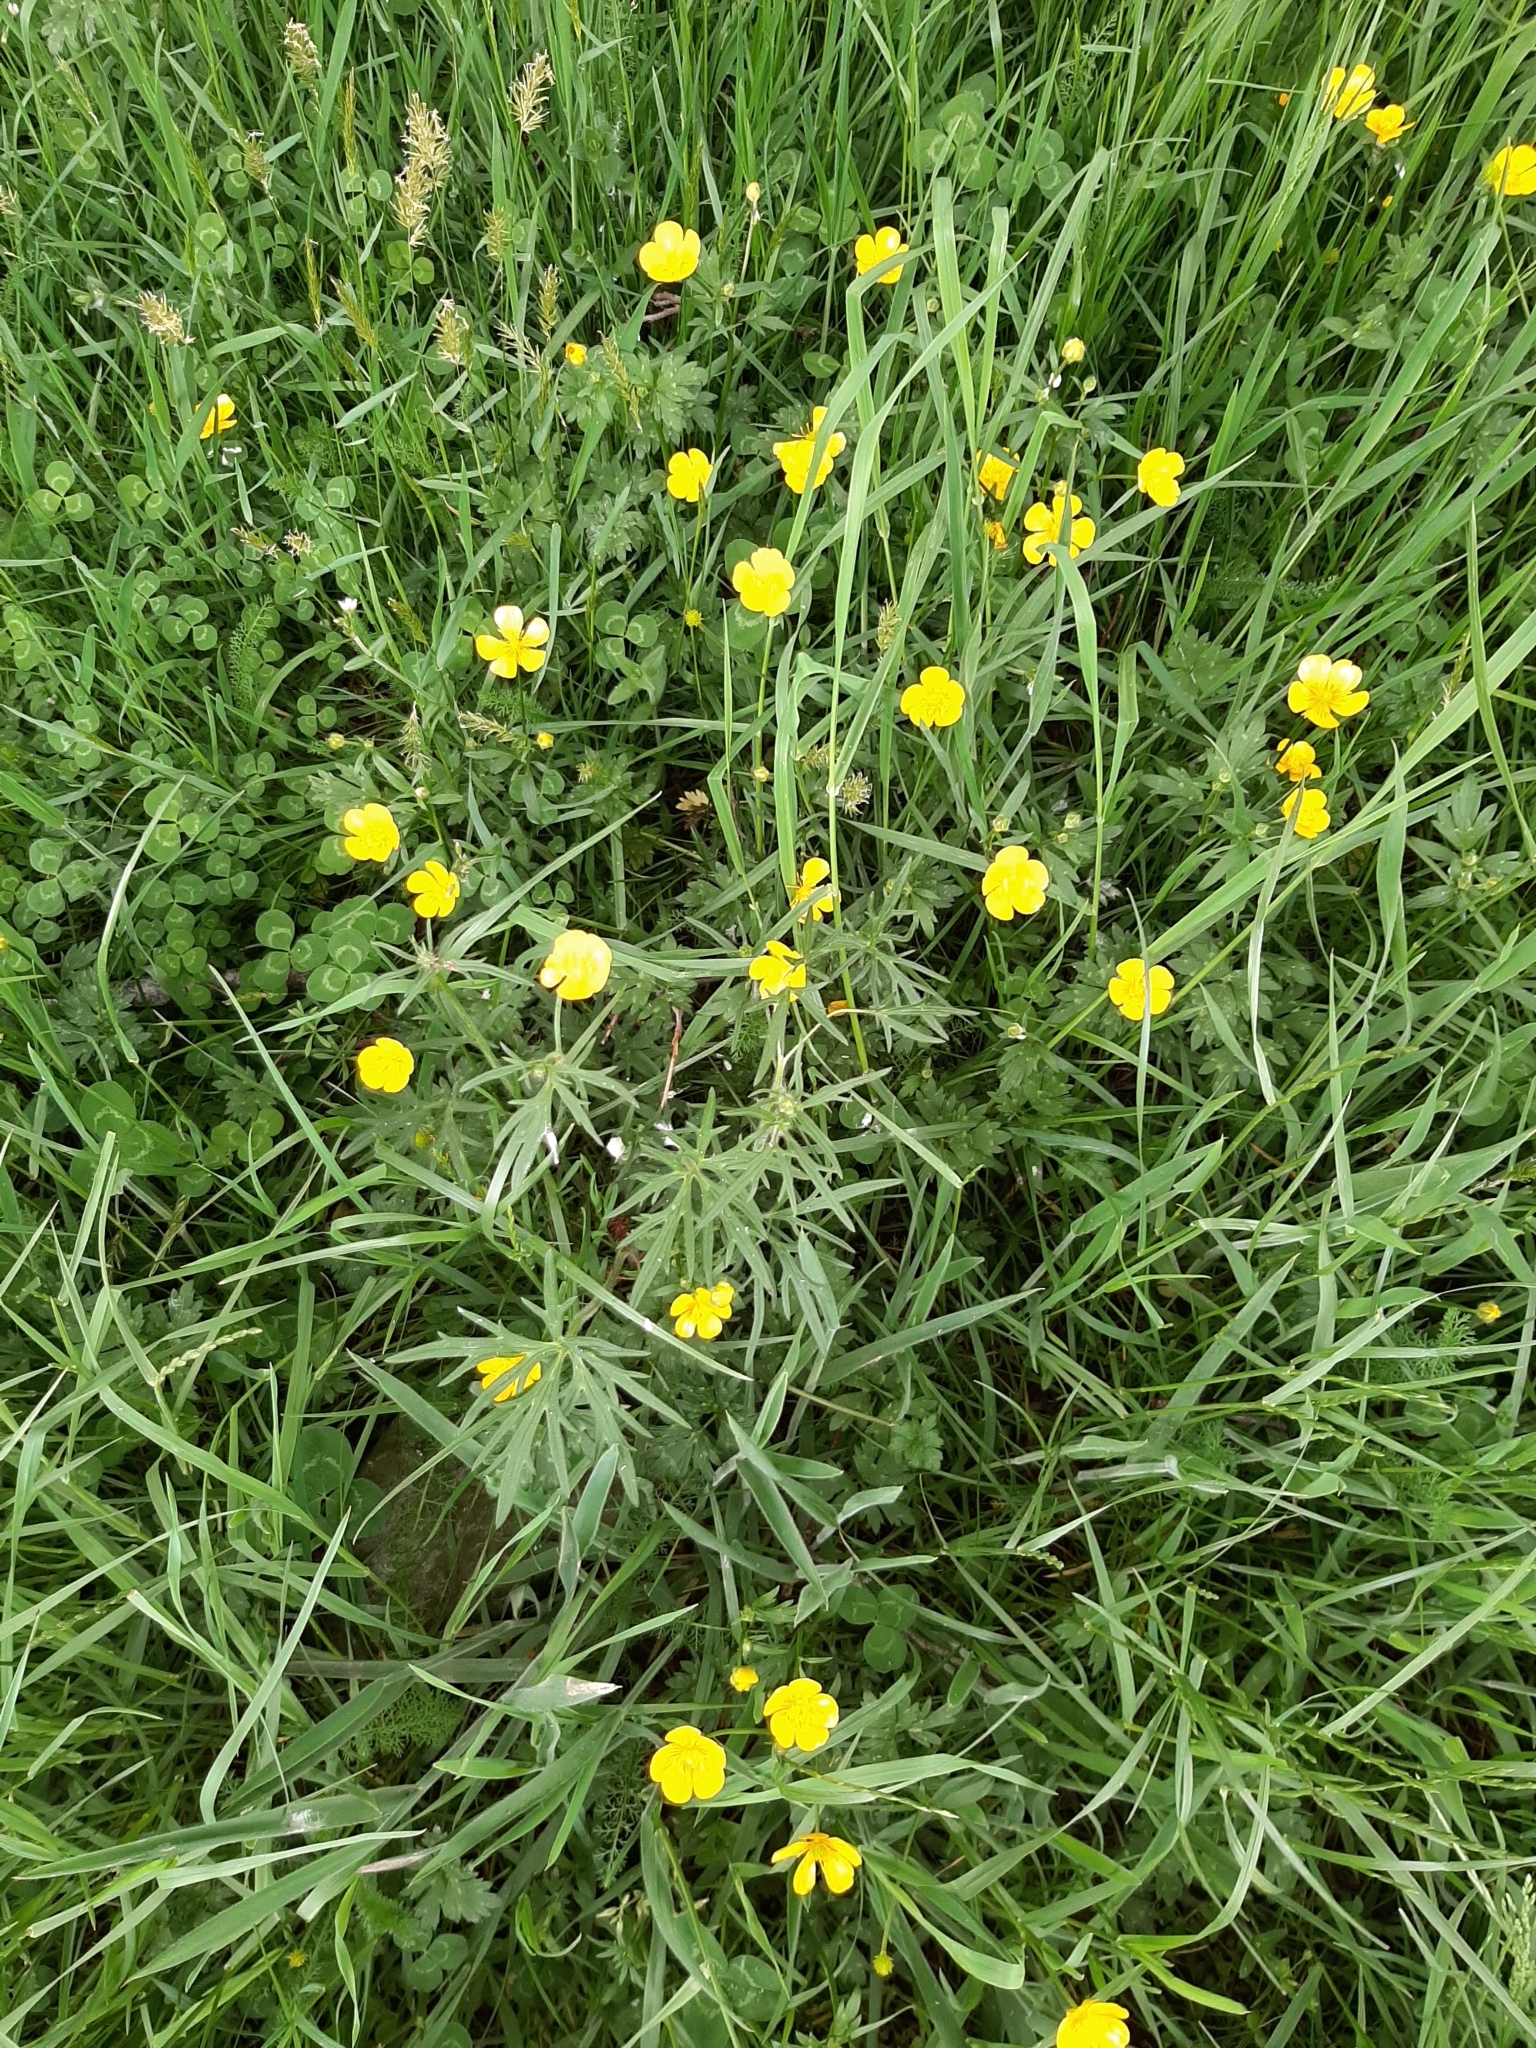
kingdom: Plantae
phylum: Tracheophyta
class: Magnoliopsida
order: Ranunculales
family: Ranunculaceae
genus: Ranunculus
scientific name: Ranunculus acris
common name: Meadow buttercup
